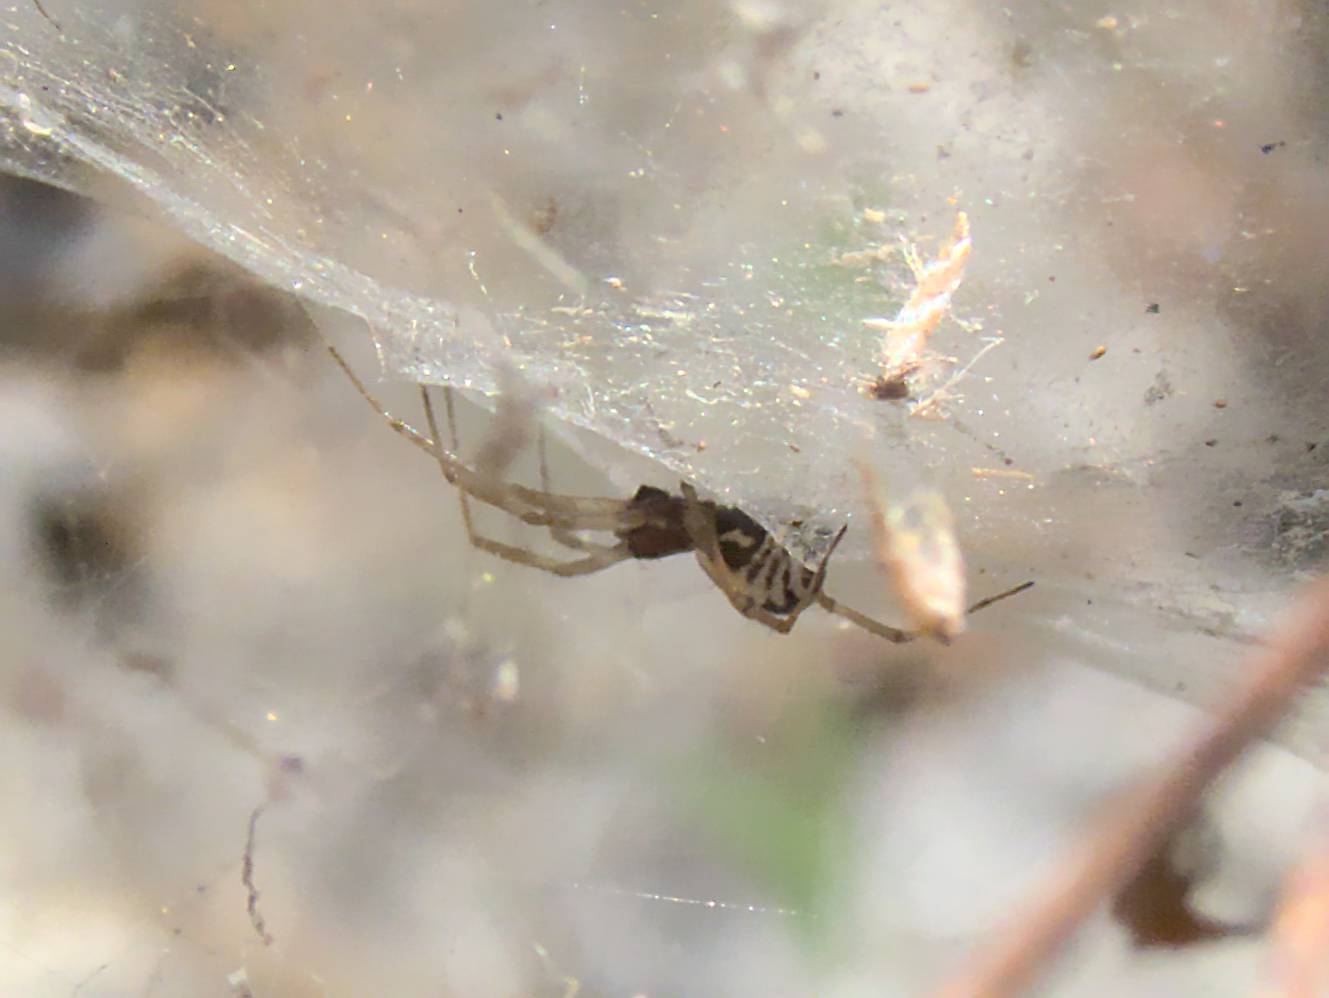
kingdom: Animalia
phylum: Arthropoda
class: Arachnida
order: Araneae
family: Linyphiidae
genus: Frontinellina
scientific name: Frontinellina frutetorum
